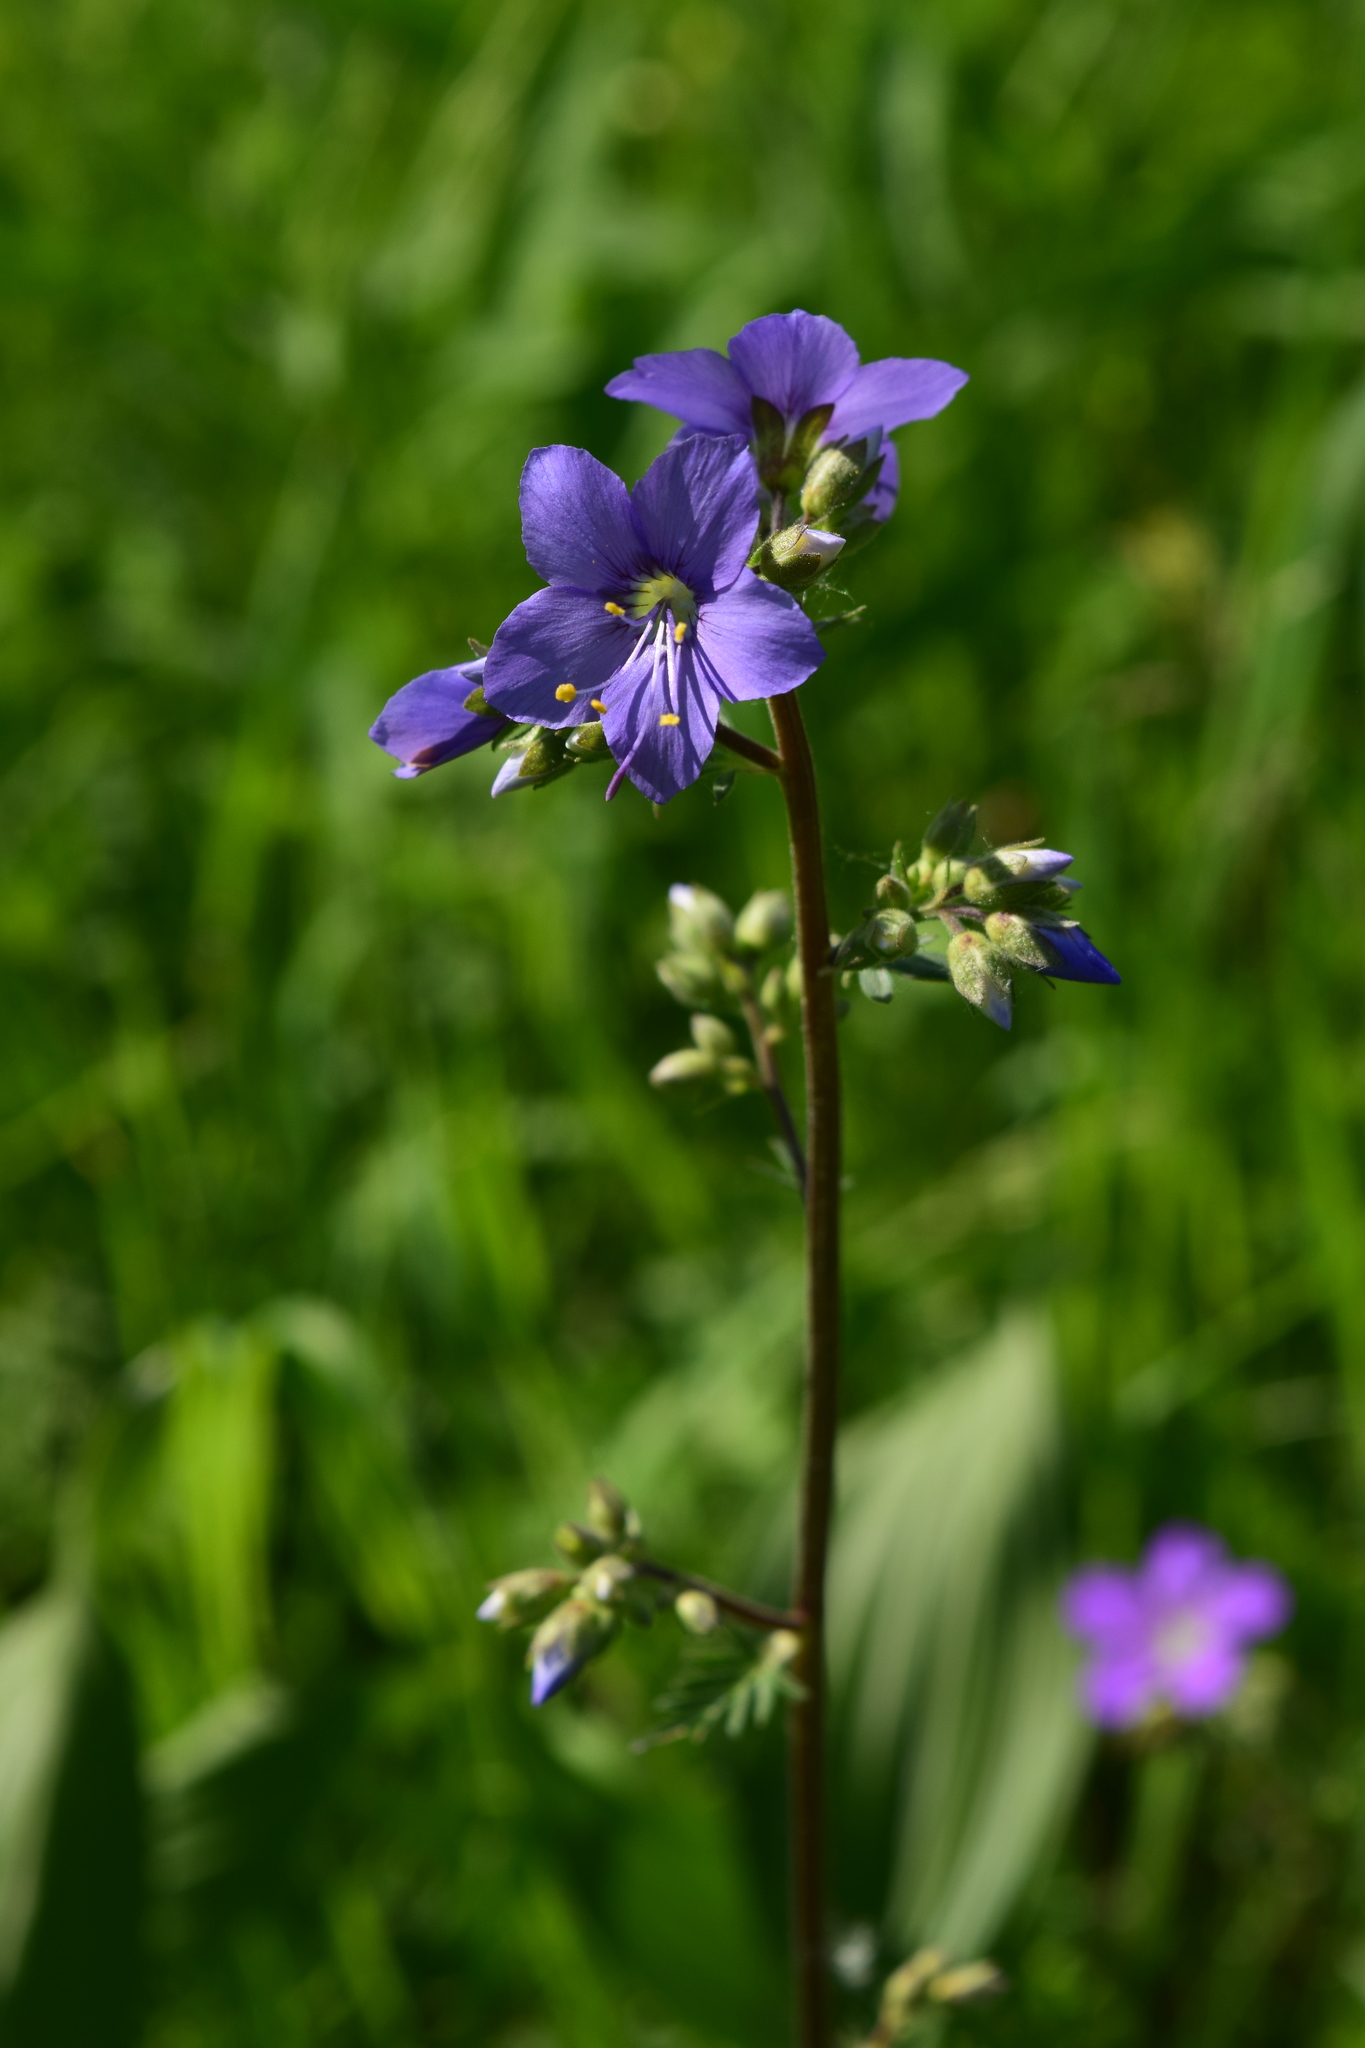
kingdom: Plantae
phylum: Tracheophyta
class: Magnoliopsida
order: Ericales
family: Polemoniaceae
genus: Polemonium
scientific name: Polemonium caeruleum
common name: Jacob's-ladder
